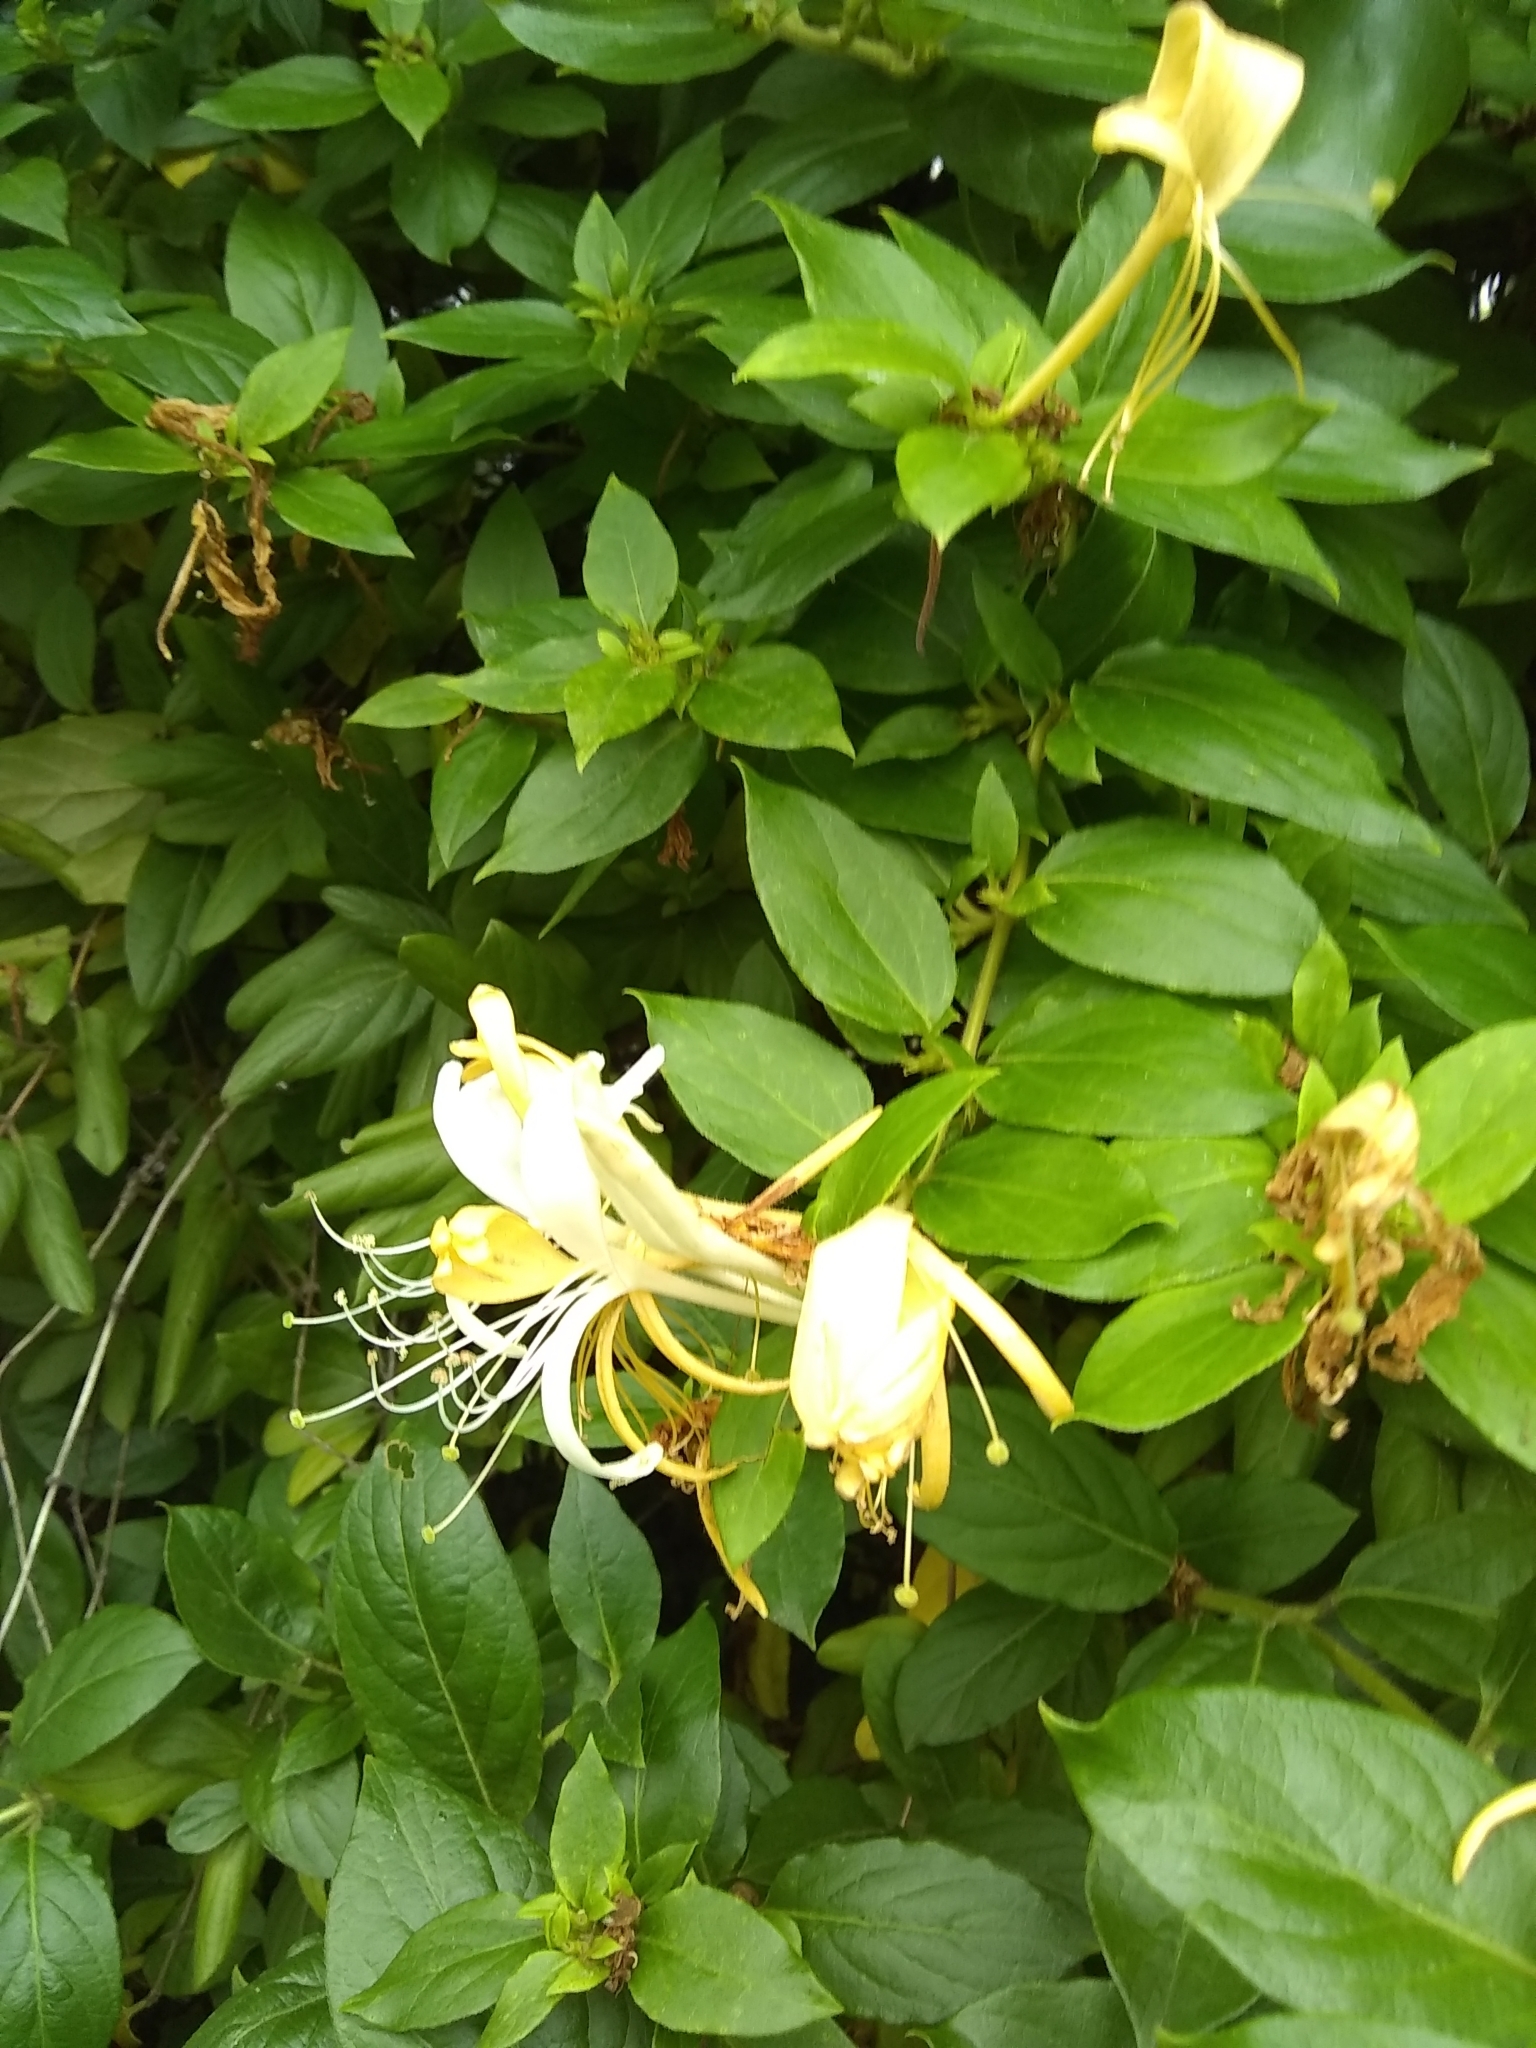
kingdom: Plantae
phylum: Tracheophyta
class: Magnoliopsida
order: Dipsacales
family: Caprifoliaceae
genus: Lonicera
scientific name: Lonicera japonica
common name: Japanese honeysuckle
